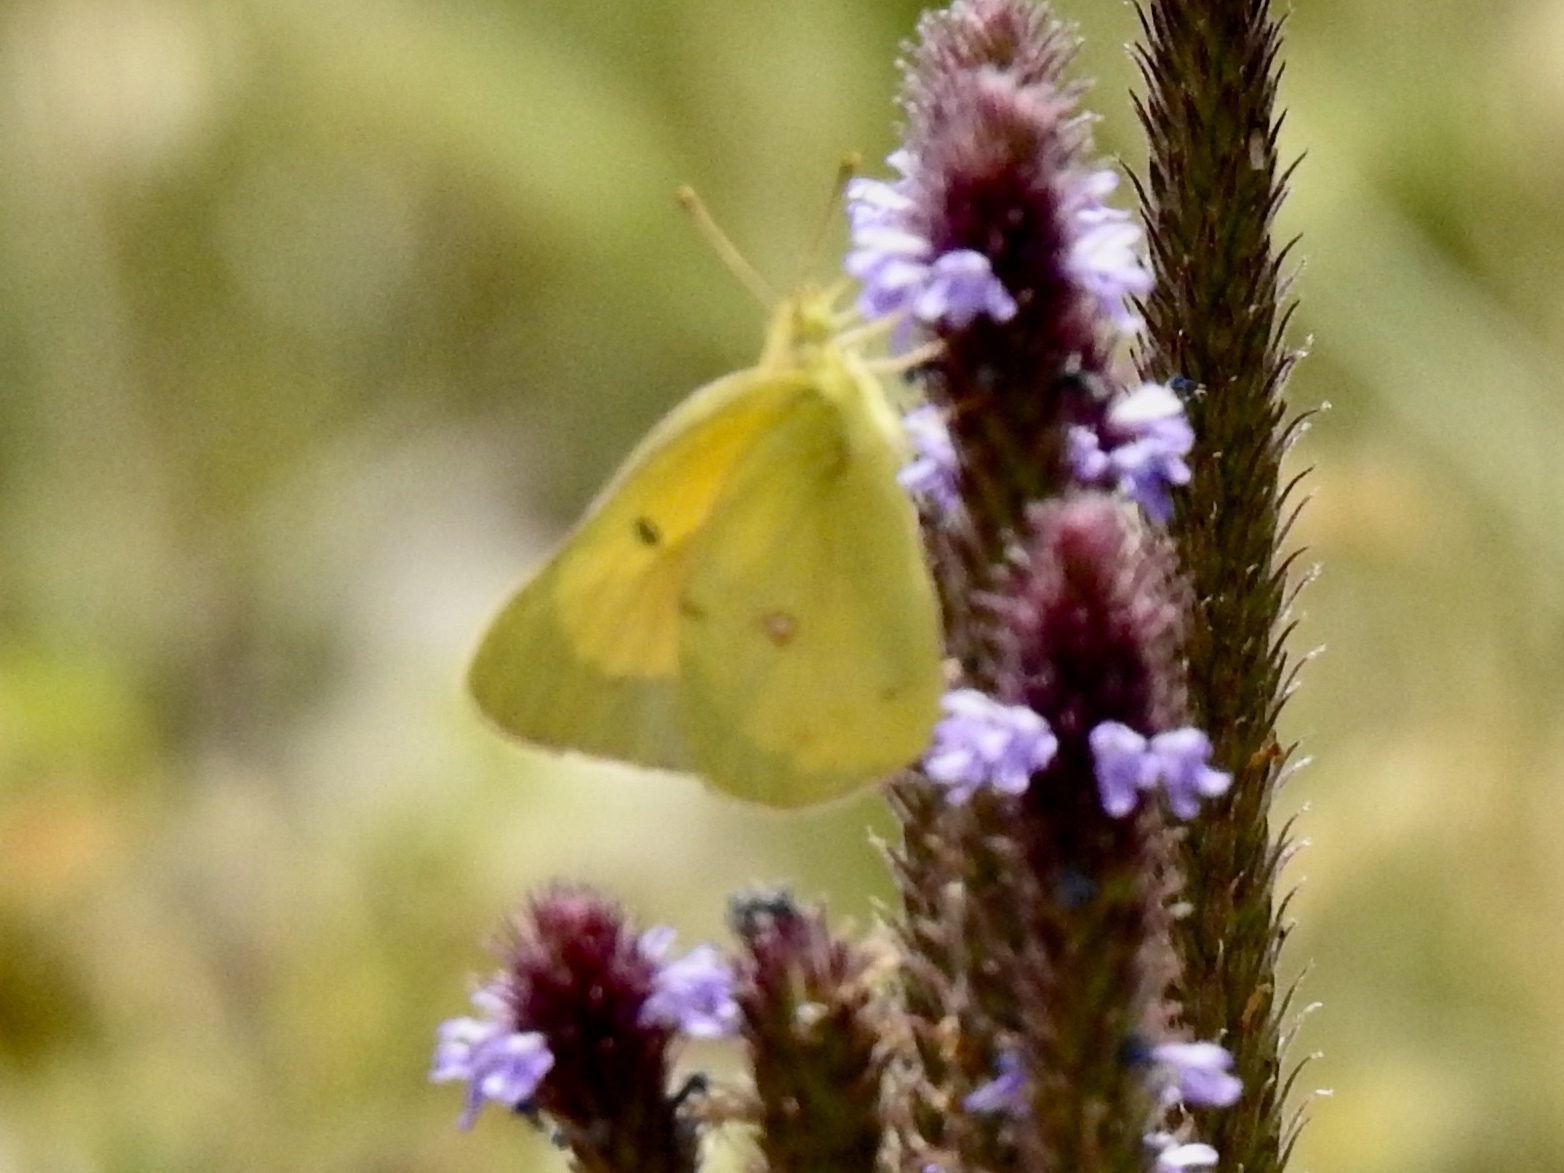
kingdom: Animalia
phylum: Arthropoda
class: Insecta
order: Lepidoptera
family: Pieridae
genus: Colias
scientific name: Colias eurytheme
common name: Alfalfa butterfly
